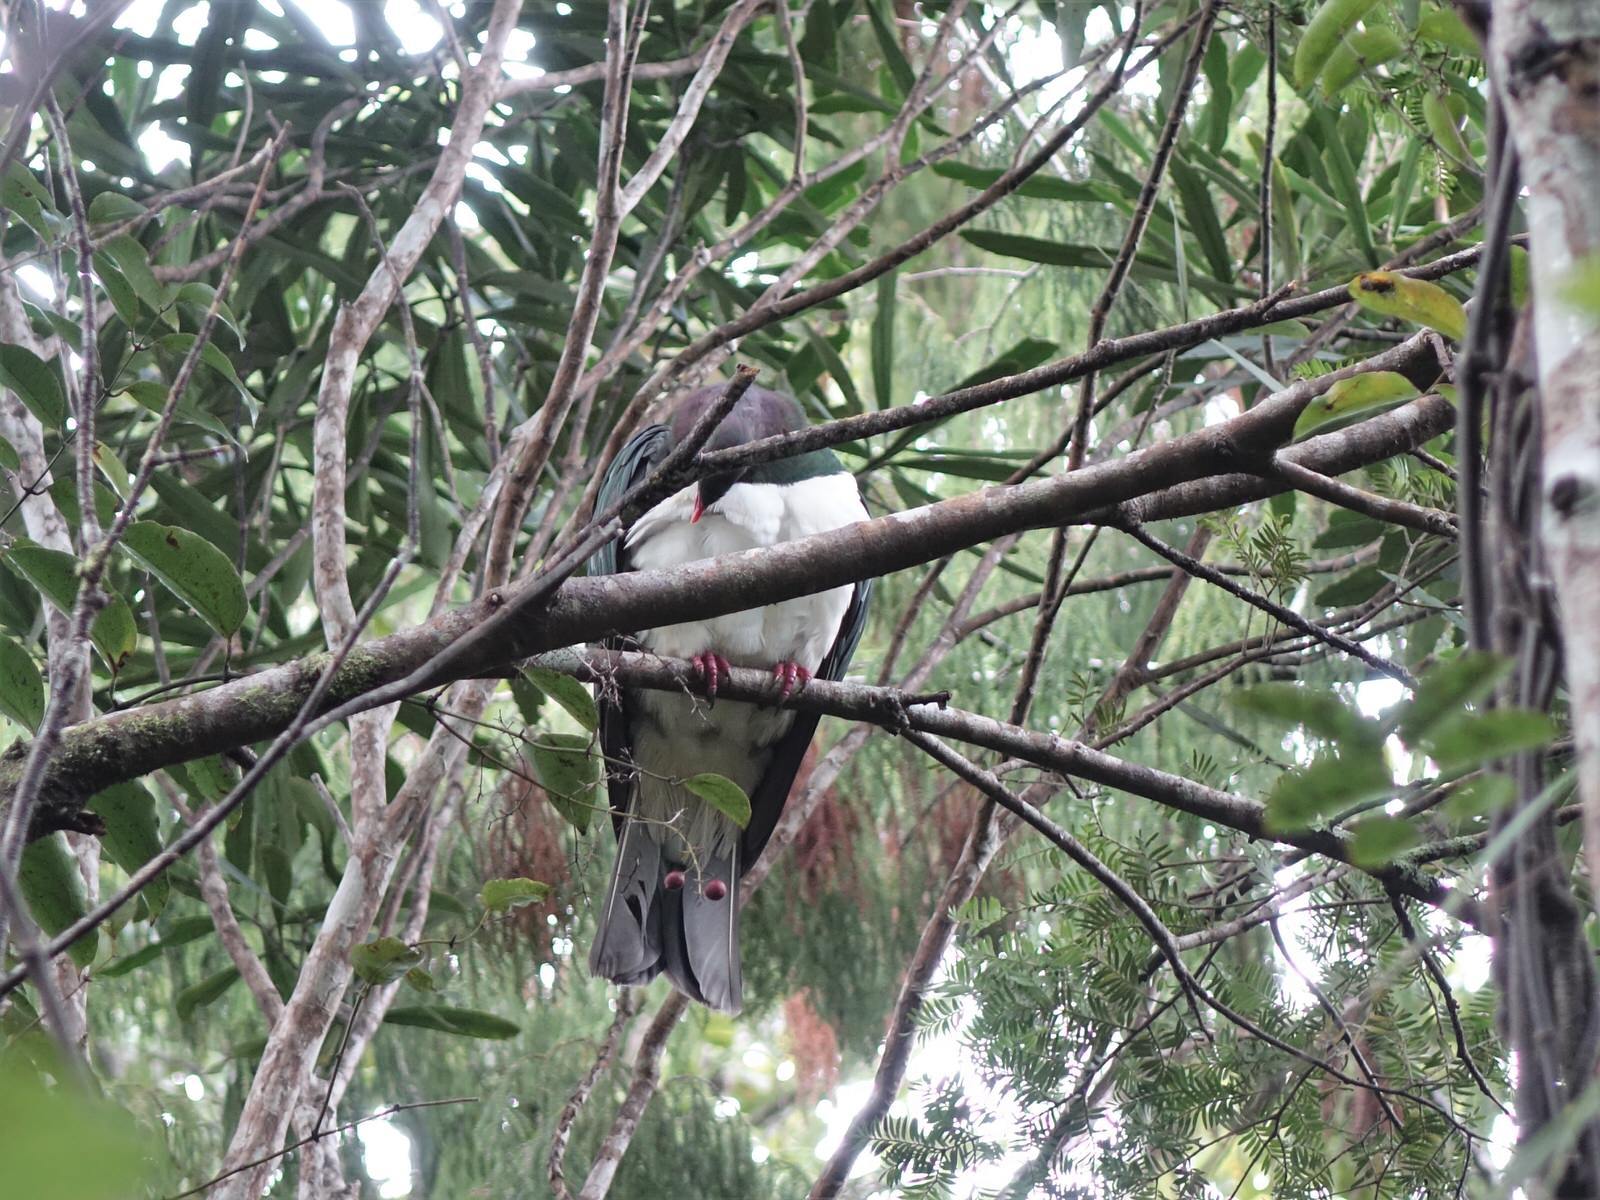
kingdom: Animalia
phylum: Chordata
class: Aves
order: Columbiformes
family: Columbidae
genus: Hemiphaga
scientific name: Hemiphaga novaeseelandiae
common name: New zealand pigeon
